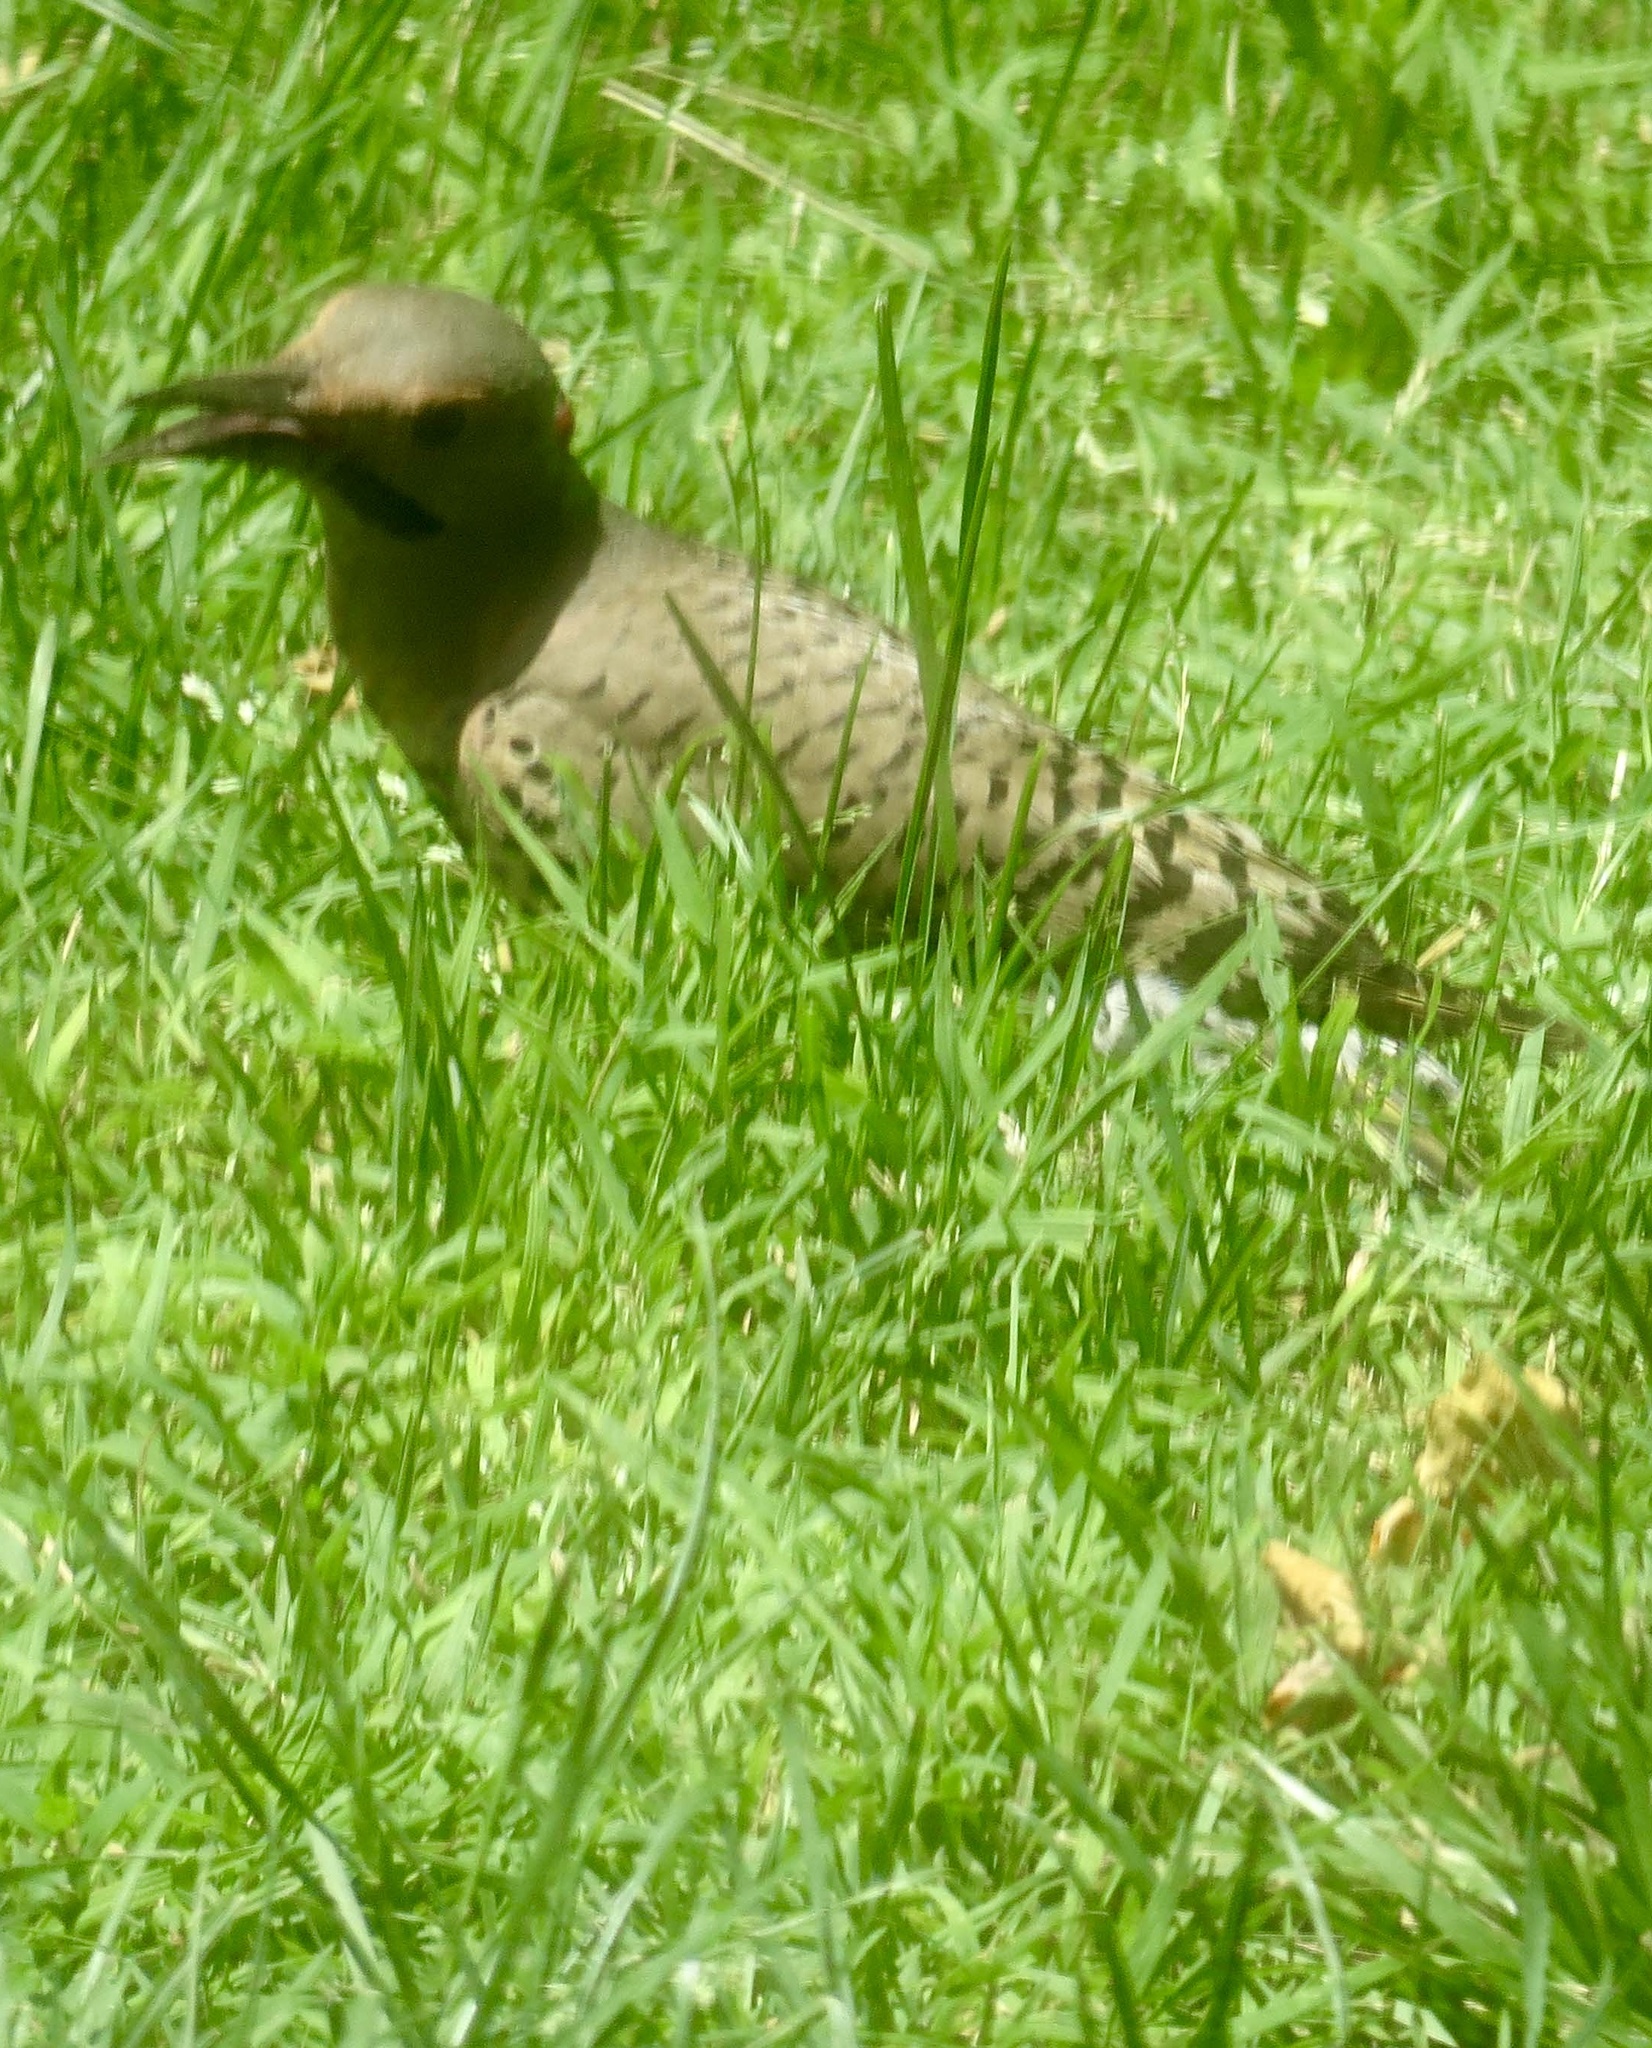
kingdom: Animalia
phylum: Chordata
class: Aves
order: Piciformes
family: Picidae
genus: Colaptes
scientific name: Colaptes auratus
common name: Northern flicker
